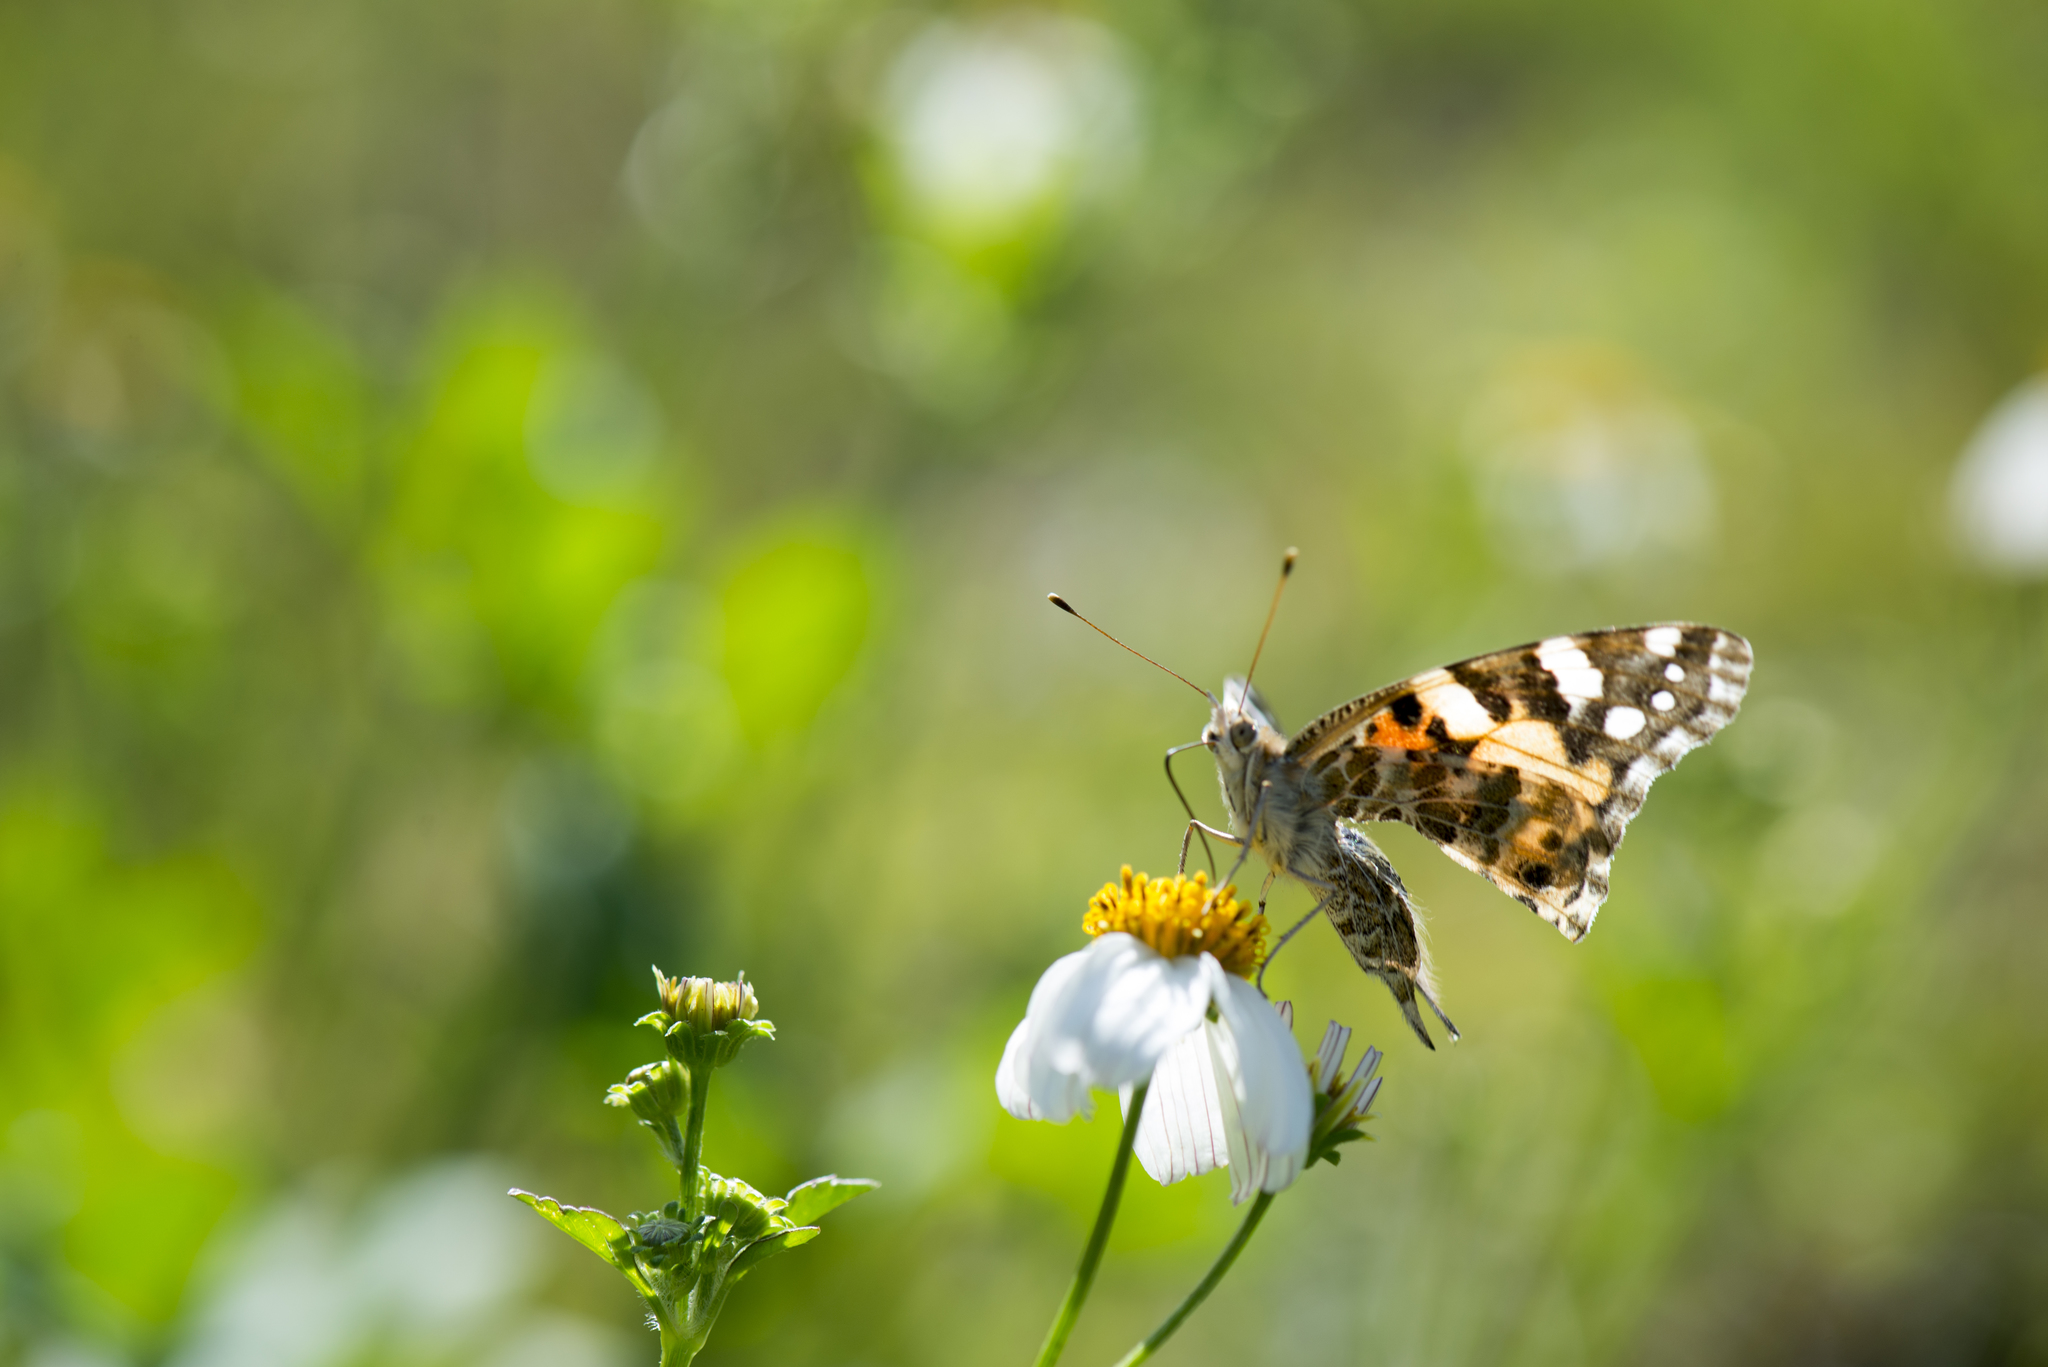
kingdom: Animalia
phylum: Arthropoda
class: Insecta
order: Lepidoptera
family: Nymphalidae
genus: Vanessa
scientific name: Vanessa cardui
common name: Painted lady
